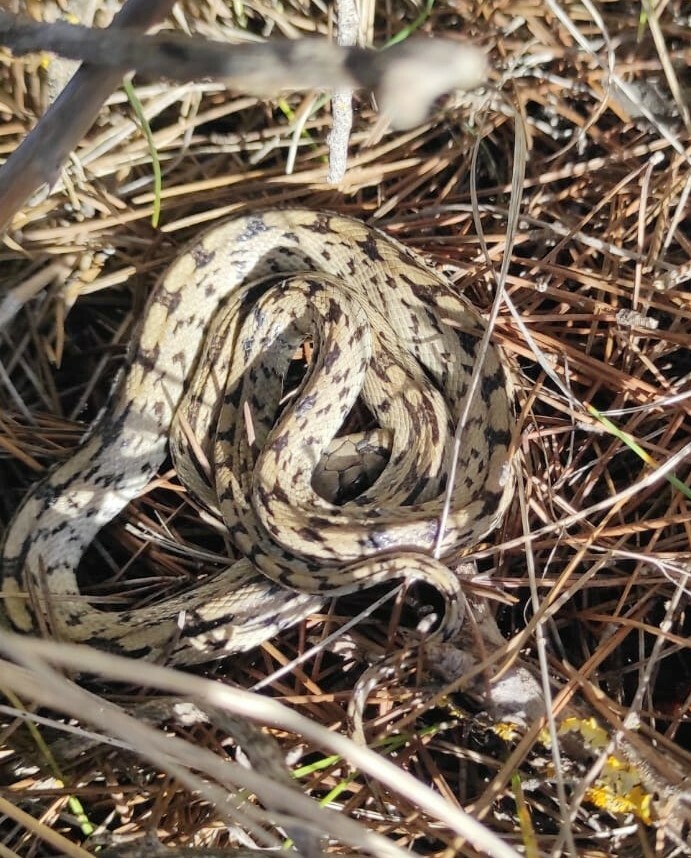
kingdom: Animalia
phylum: Chordata
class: Squamata
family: Colubridae
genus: Zamenis
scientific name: Zamenis scalaris
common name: Ladder snakes
